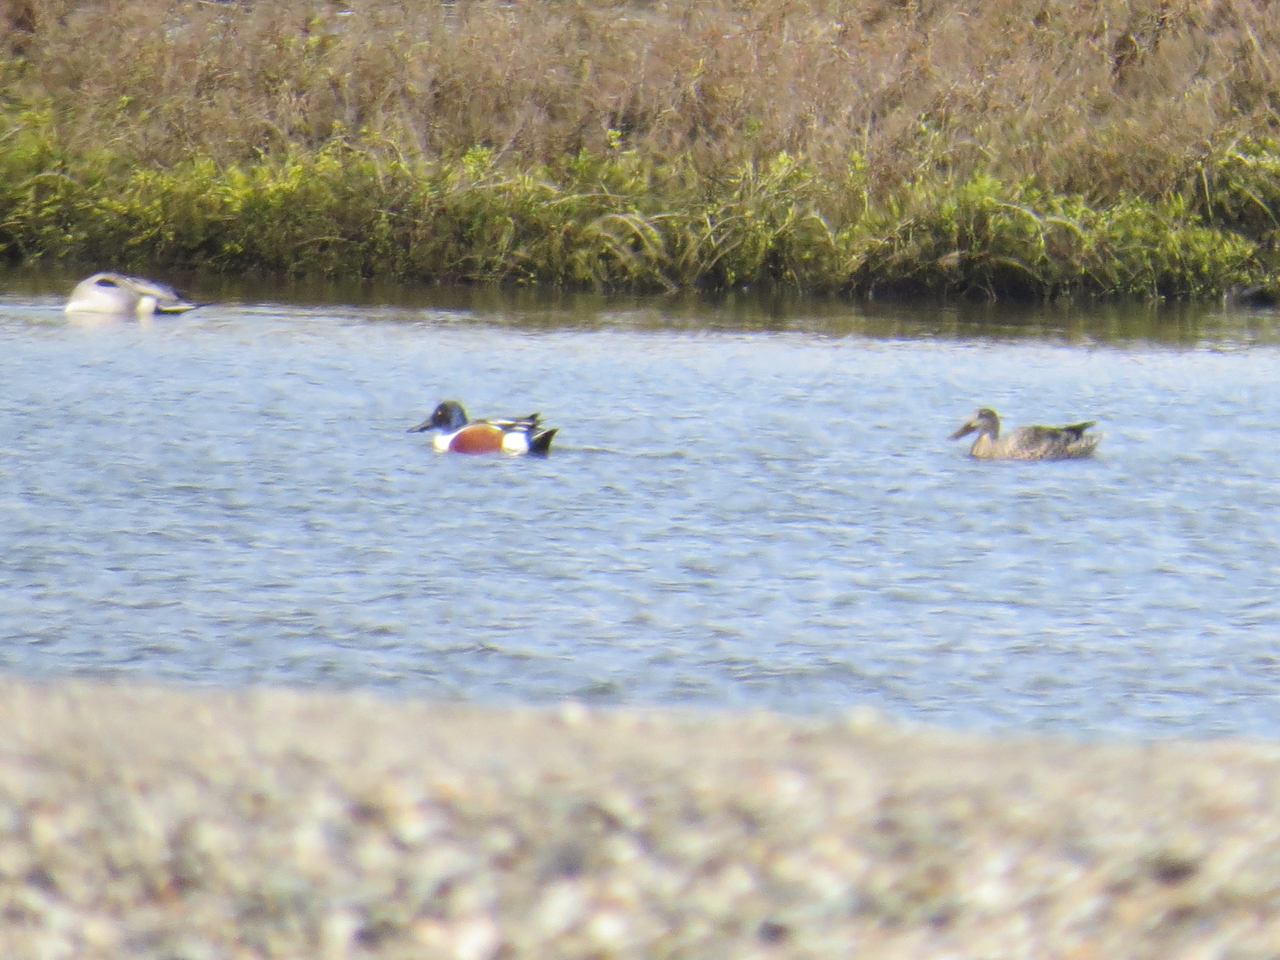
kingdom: Animalia
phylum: Chordata
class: Aves
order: Anseriformes
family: Anatidae
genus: Spatula
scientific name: Spatula clypeata
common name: Northern shoveler
